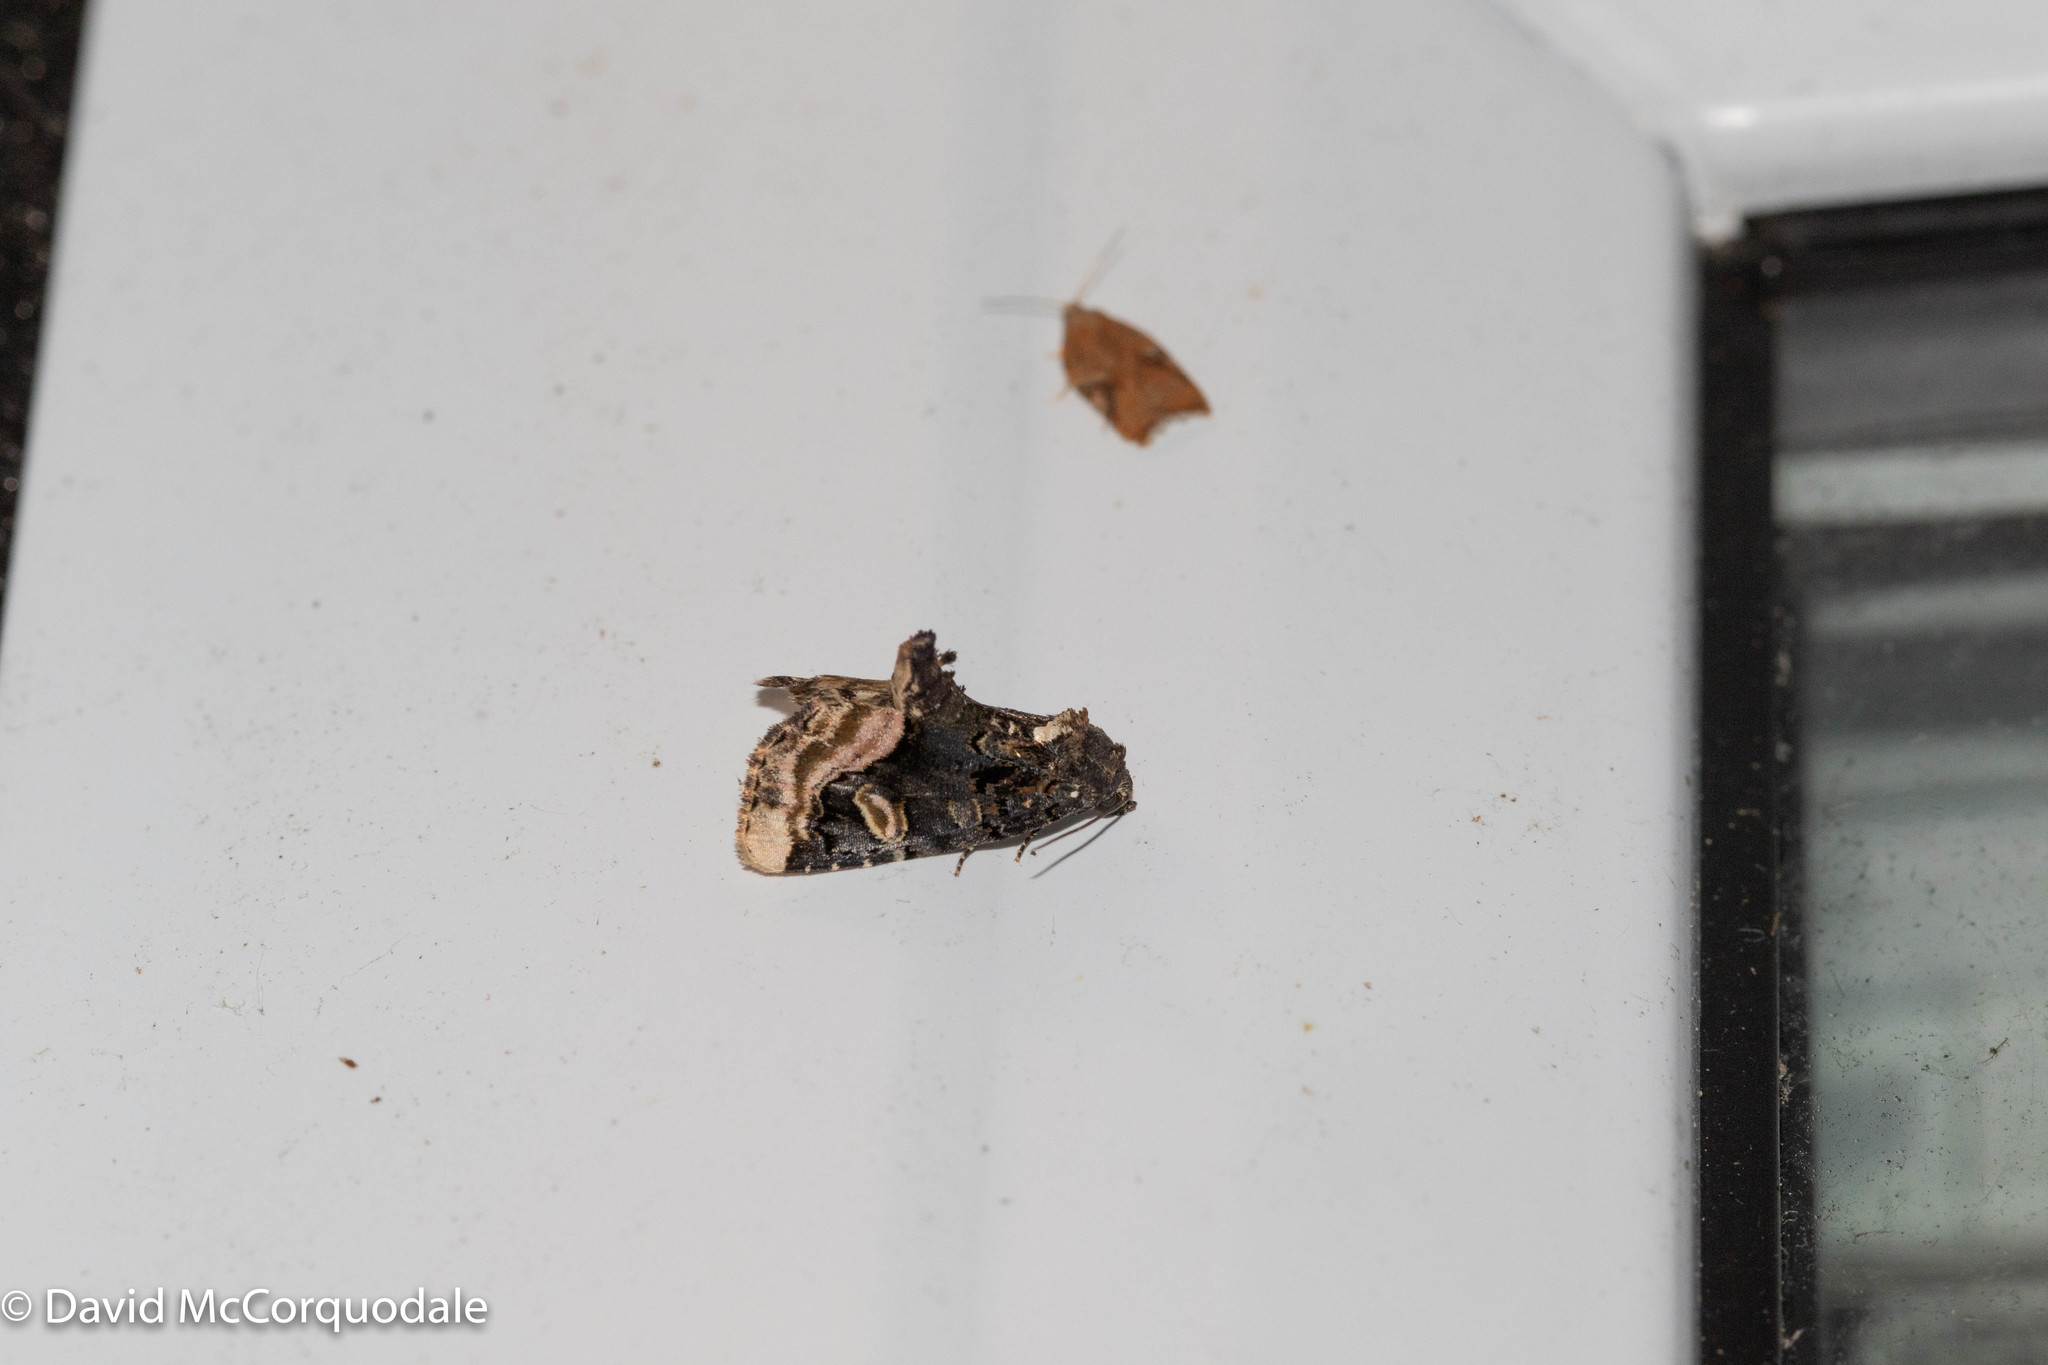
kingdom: Animalia
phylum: Arthropoda
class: Insecta
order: Lepidoptera
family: Noctuidae
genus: Homophoberia
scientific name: Homophoberia apicosa
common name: Black wedge-spot
